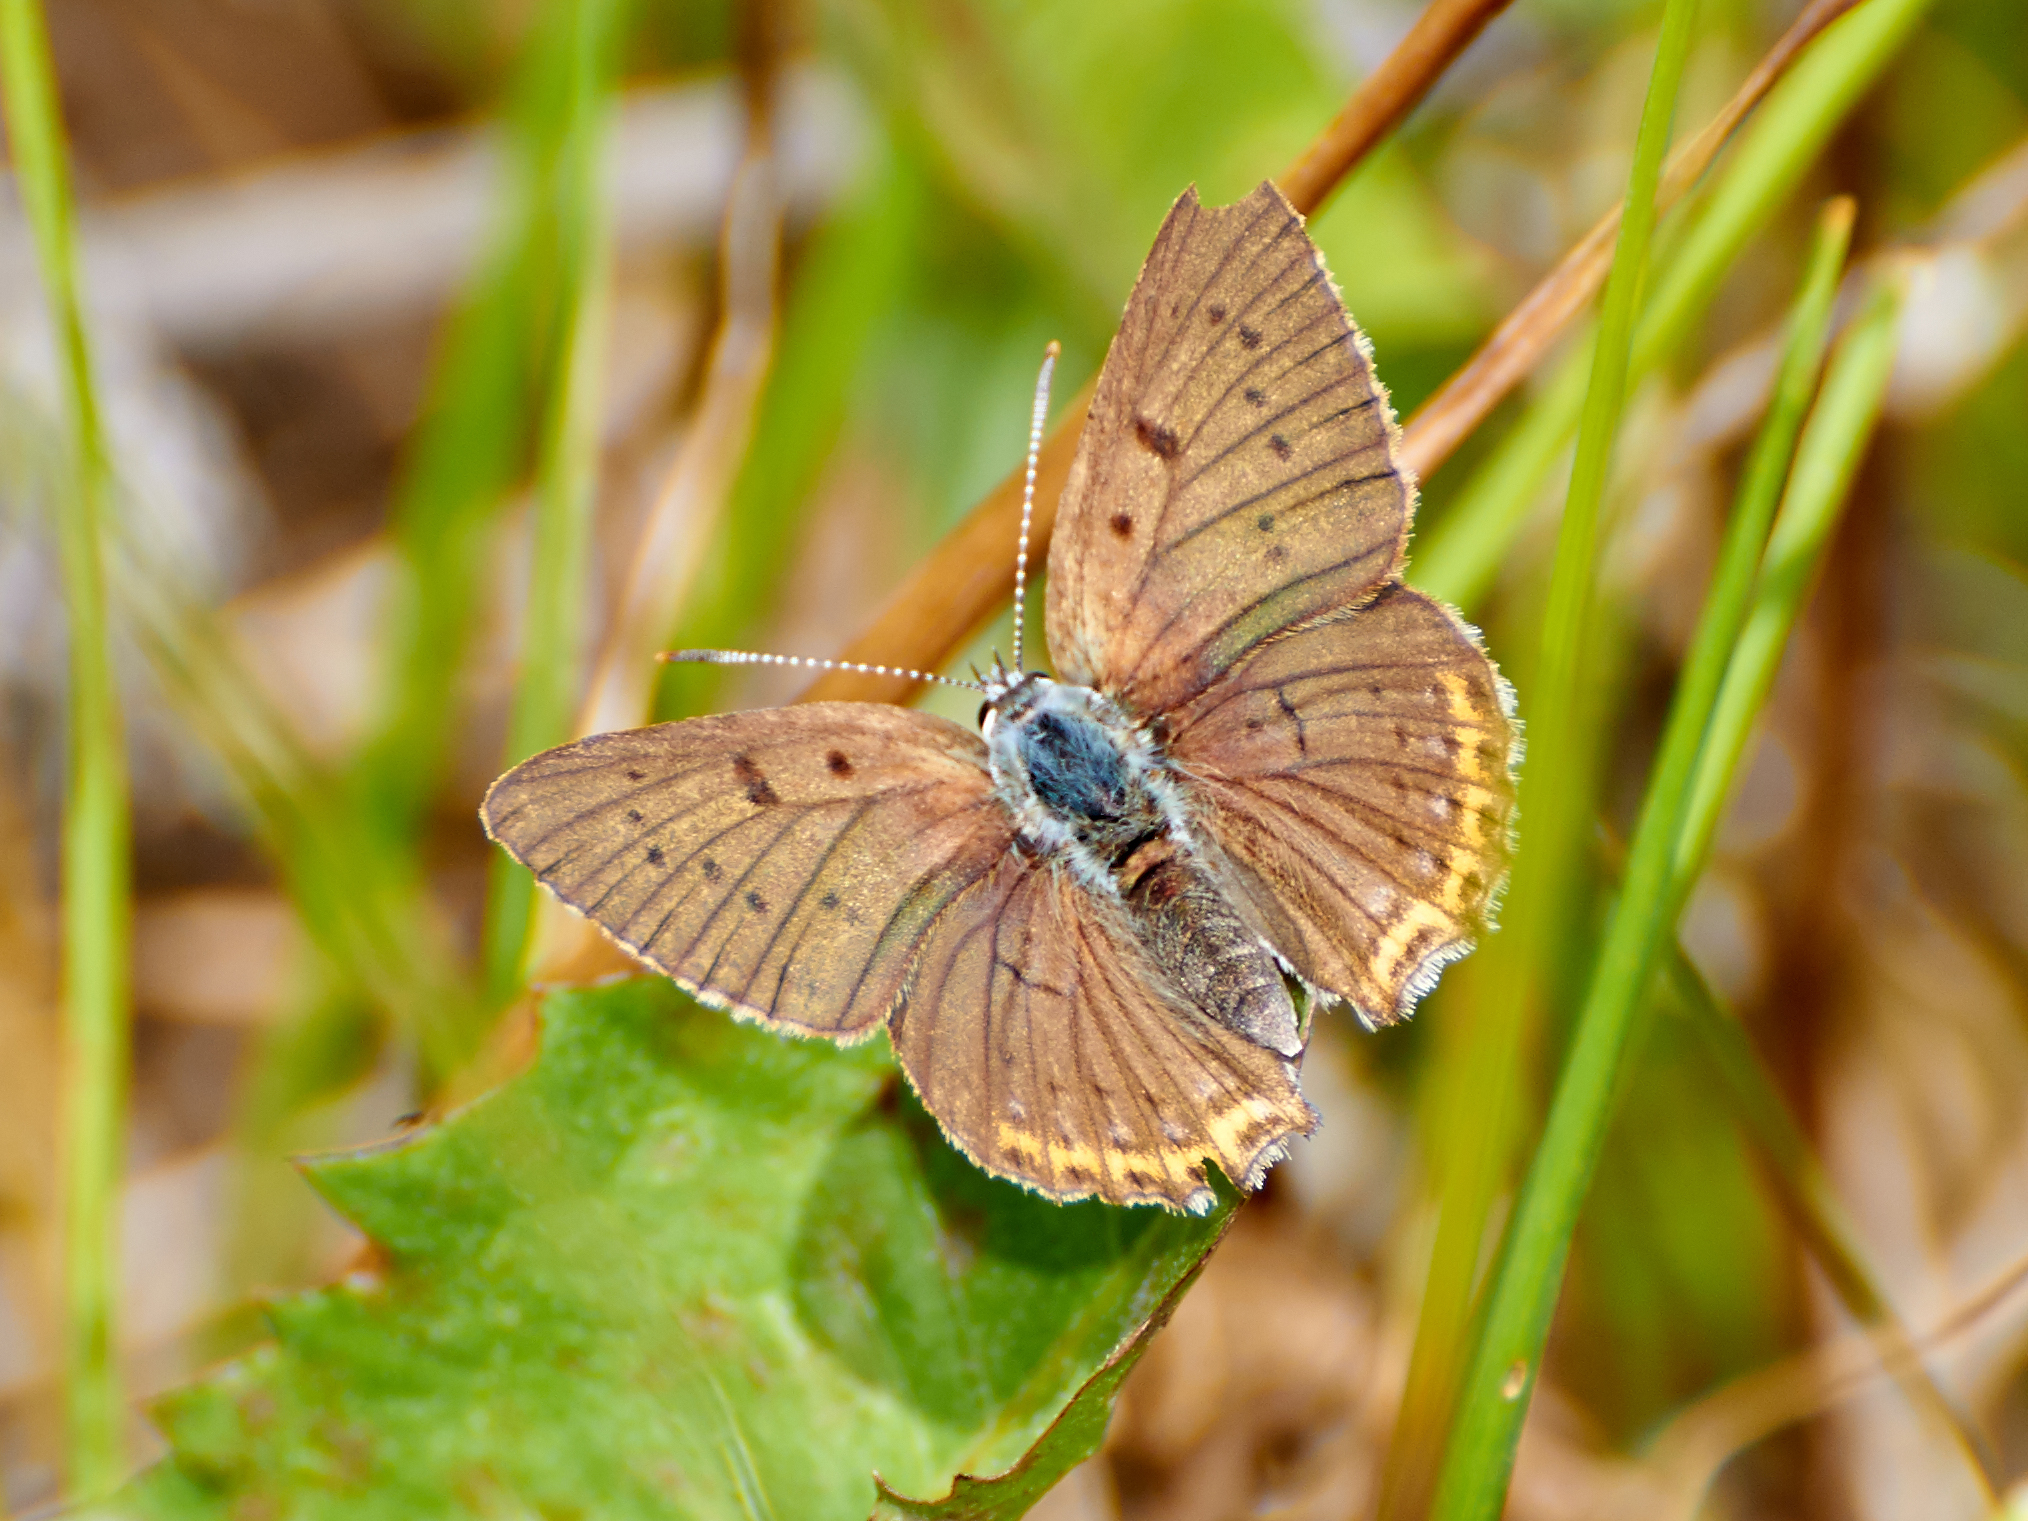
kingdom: Animalia
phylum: Arthropoda
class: Insecta
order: Lepidoptera
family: Lycaenidae
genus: Lycaena
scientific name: Lycaena alciphron
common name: Purple-shot copper
